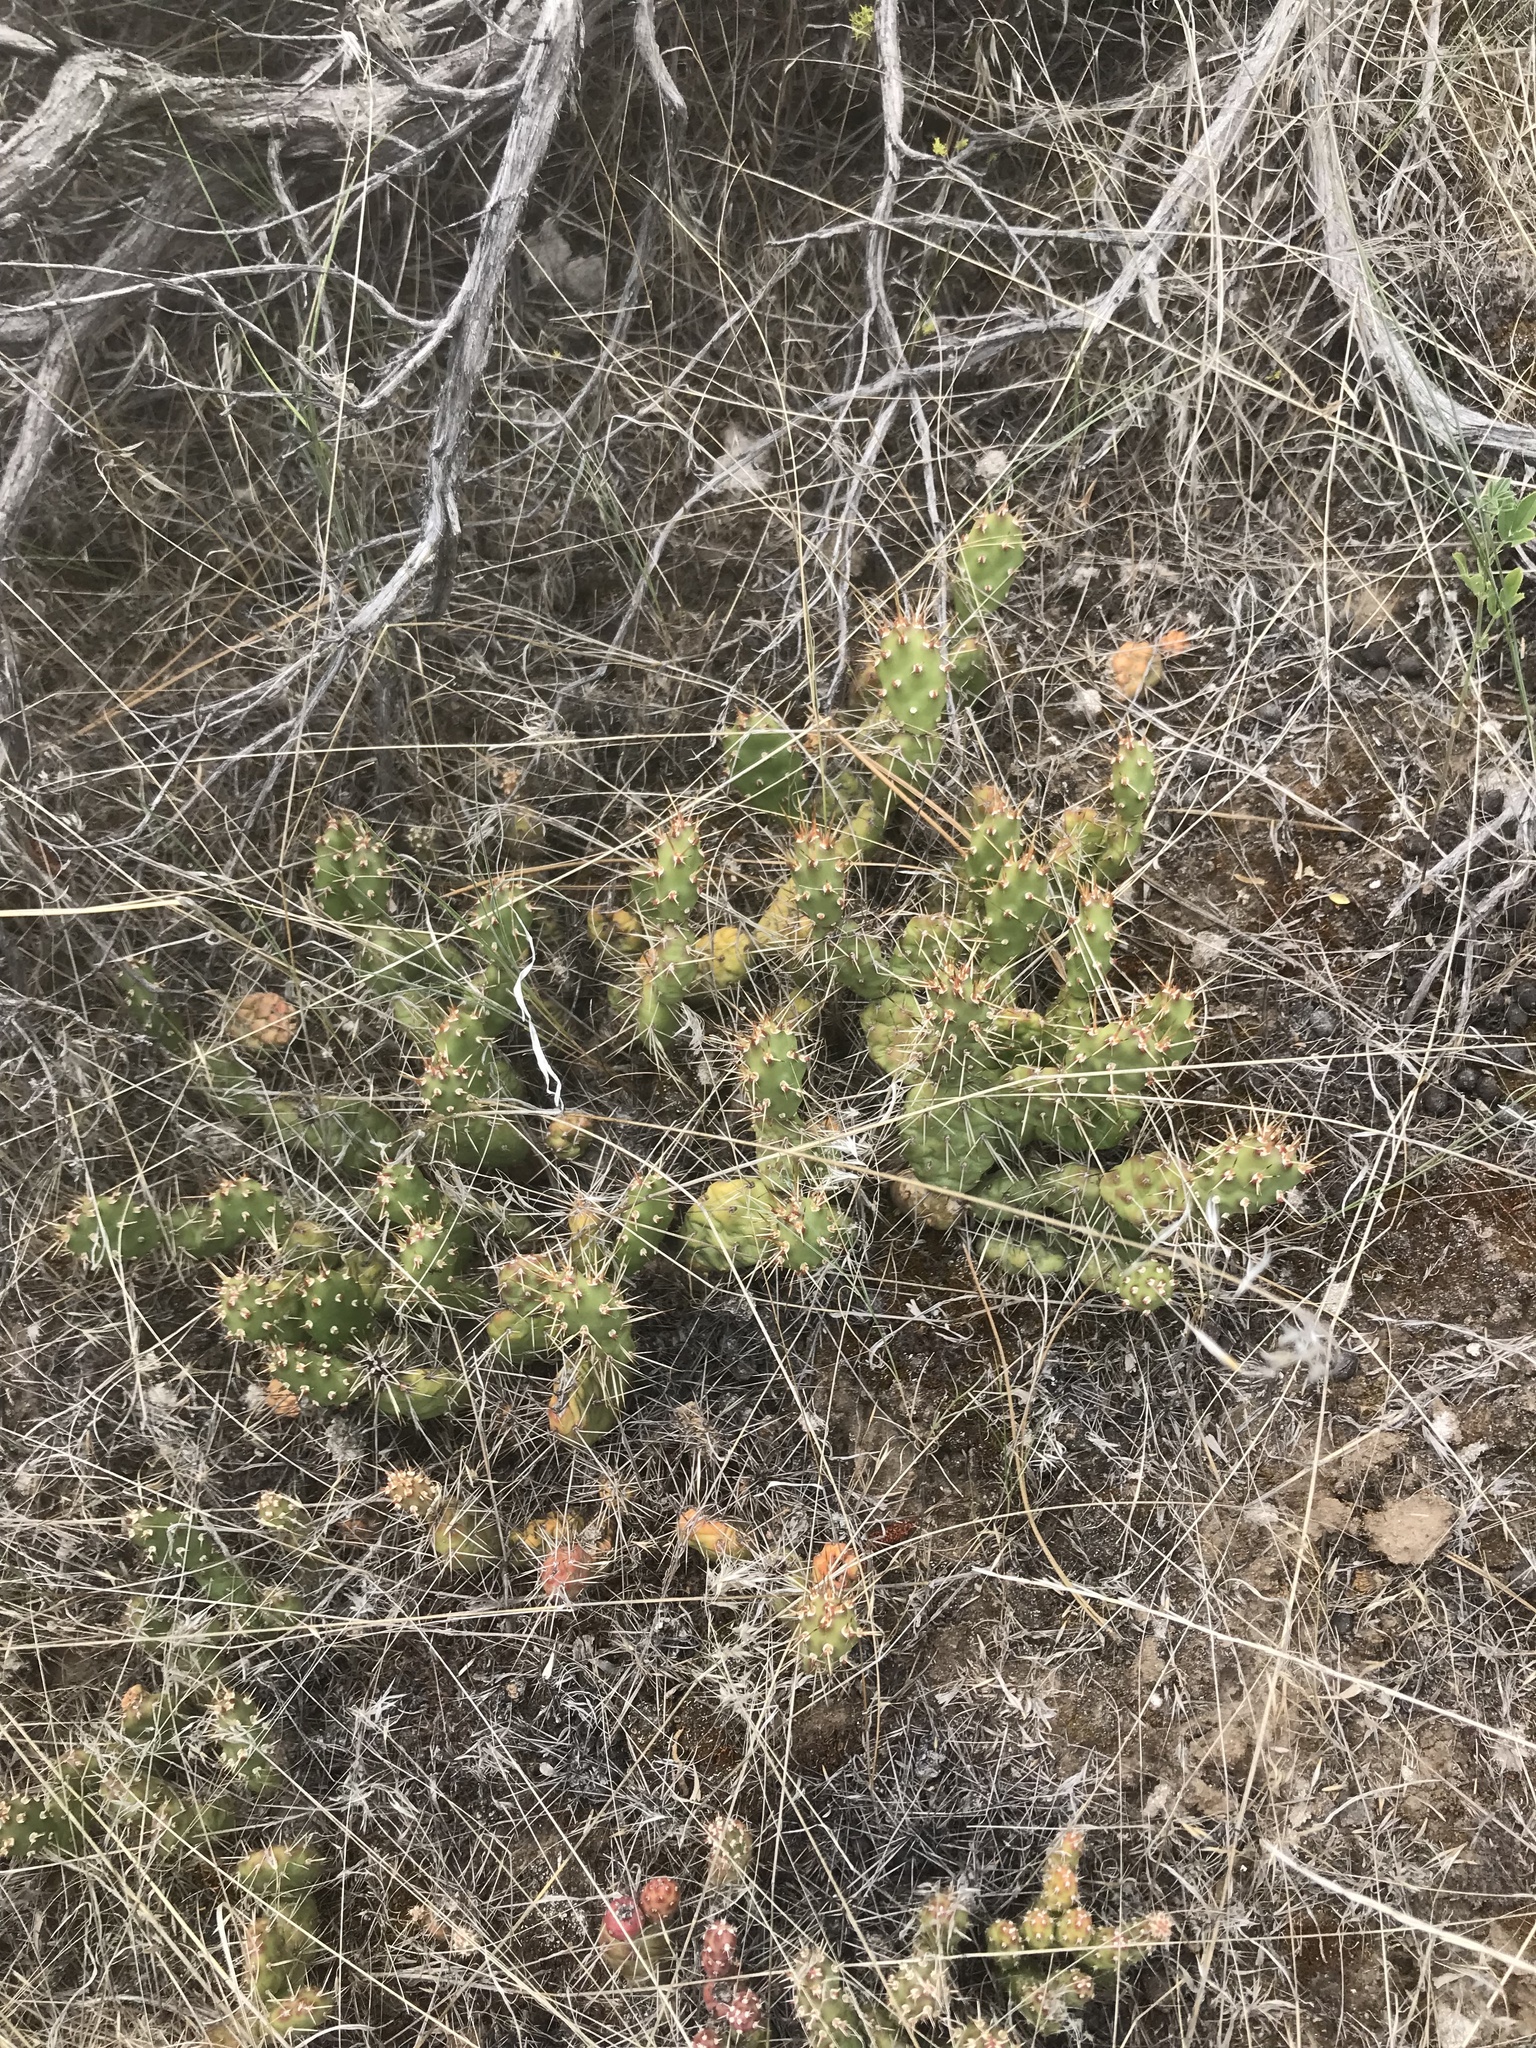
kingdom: Plantae
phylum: Tracheophyta
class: Magnoliopsida
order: Caryophyllales
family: Cactaceae
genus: Opuntia
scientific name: Opuntia fragilis
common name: Brittle cactus
